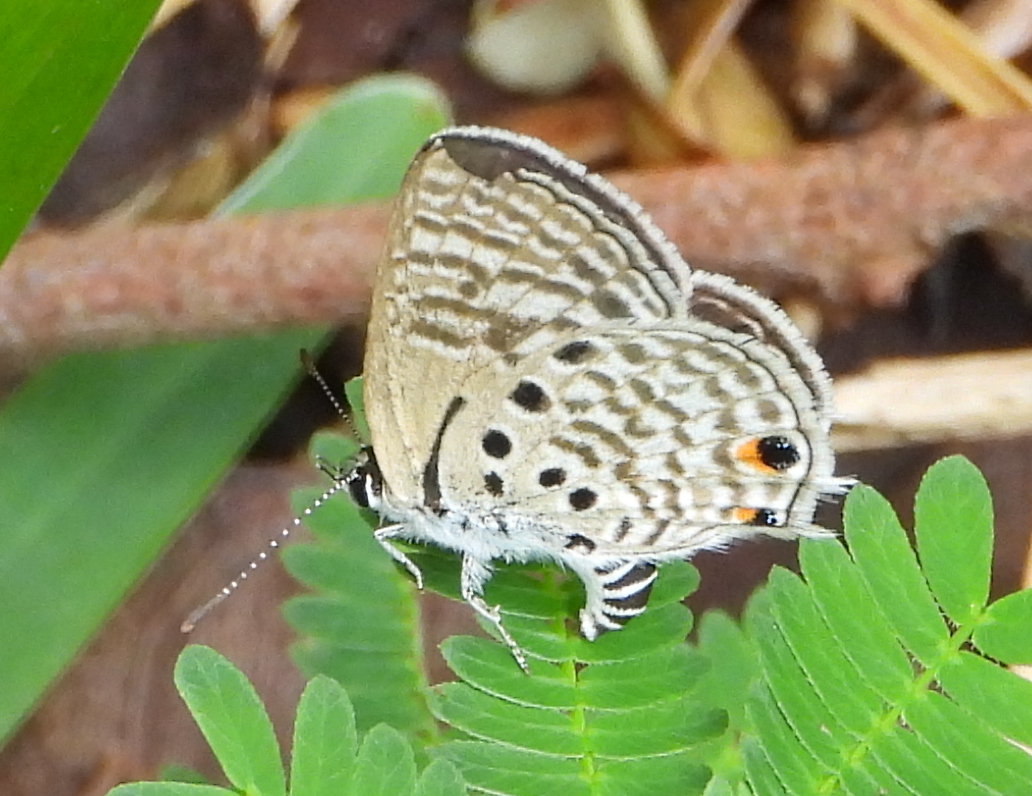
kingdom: Animalia
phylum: Arthropoda
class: Insecta
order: Lepidoptera
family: Lycaenidae
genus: Anthene
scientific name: Anthene amarah
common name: Black-striped hairtail
